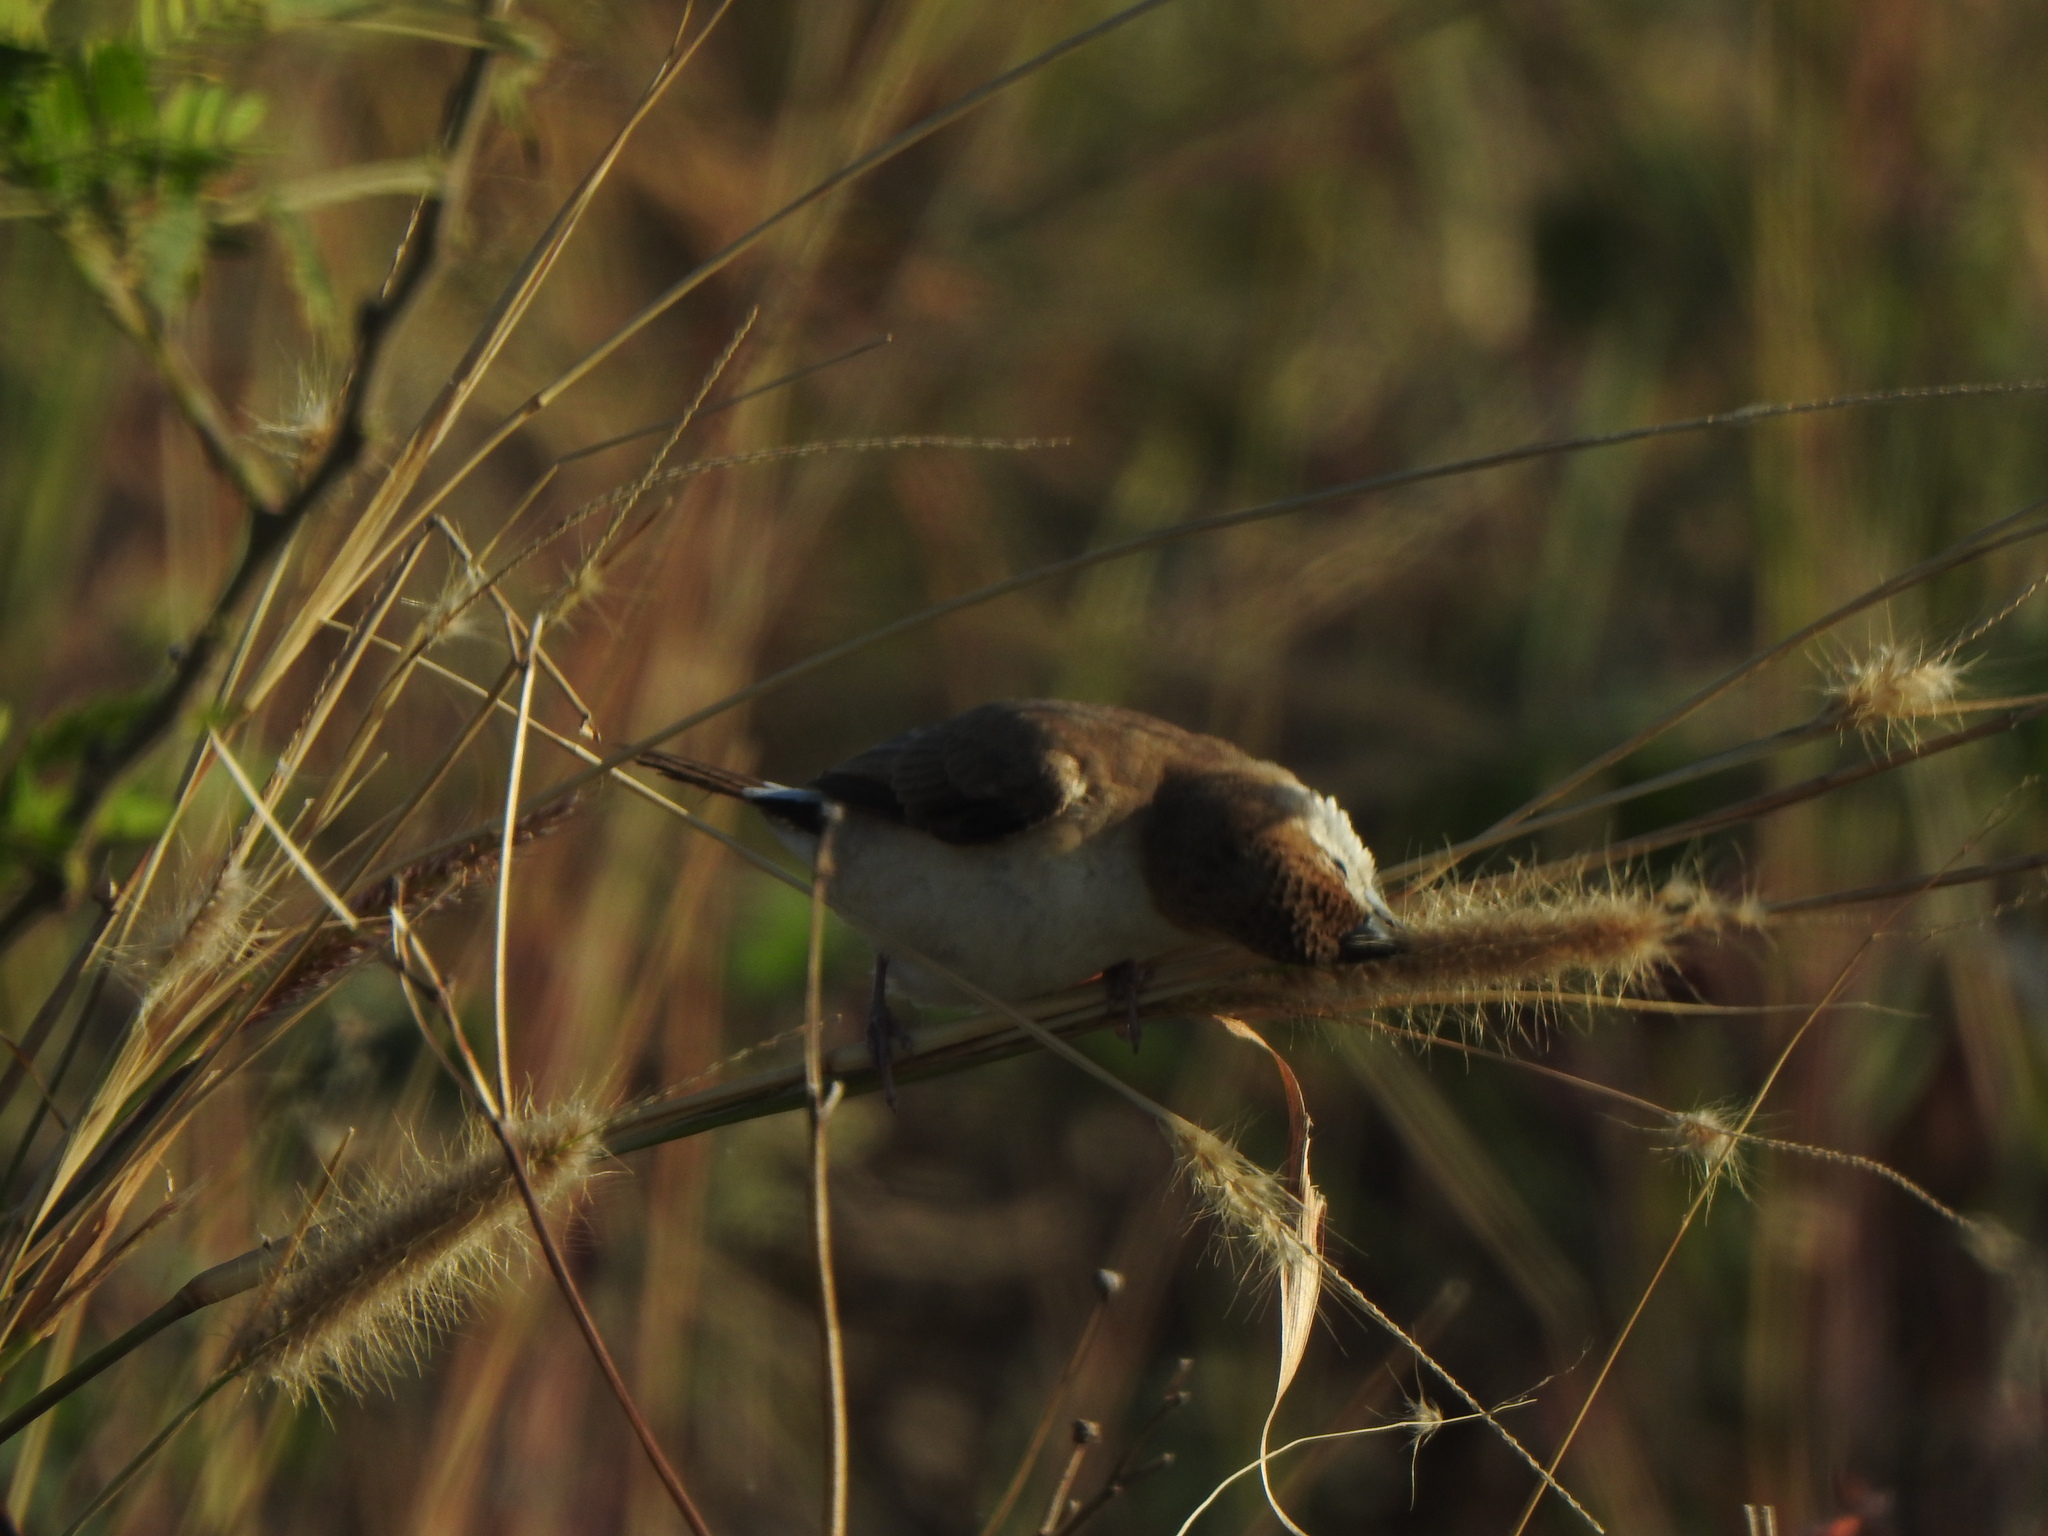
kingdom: Animalia
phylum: Chordata
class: Aves
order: Passeriformes
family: Estrildidae
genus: Euodice
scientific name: Euodice malabarica
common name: Indian silverbill
